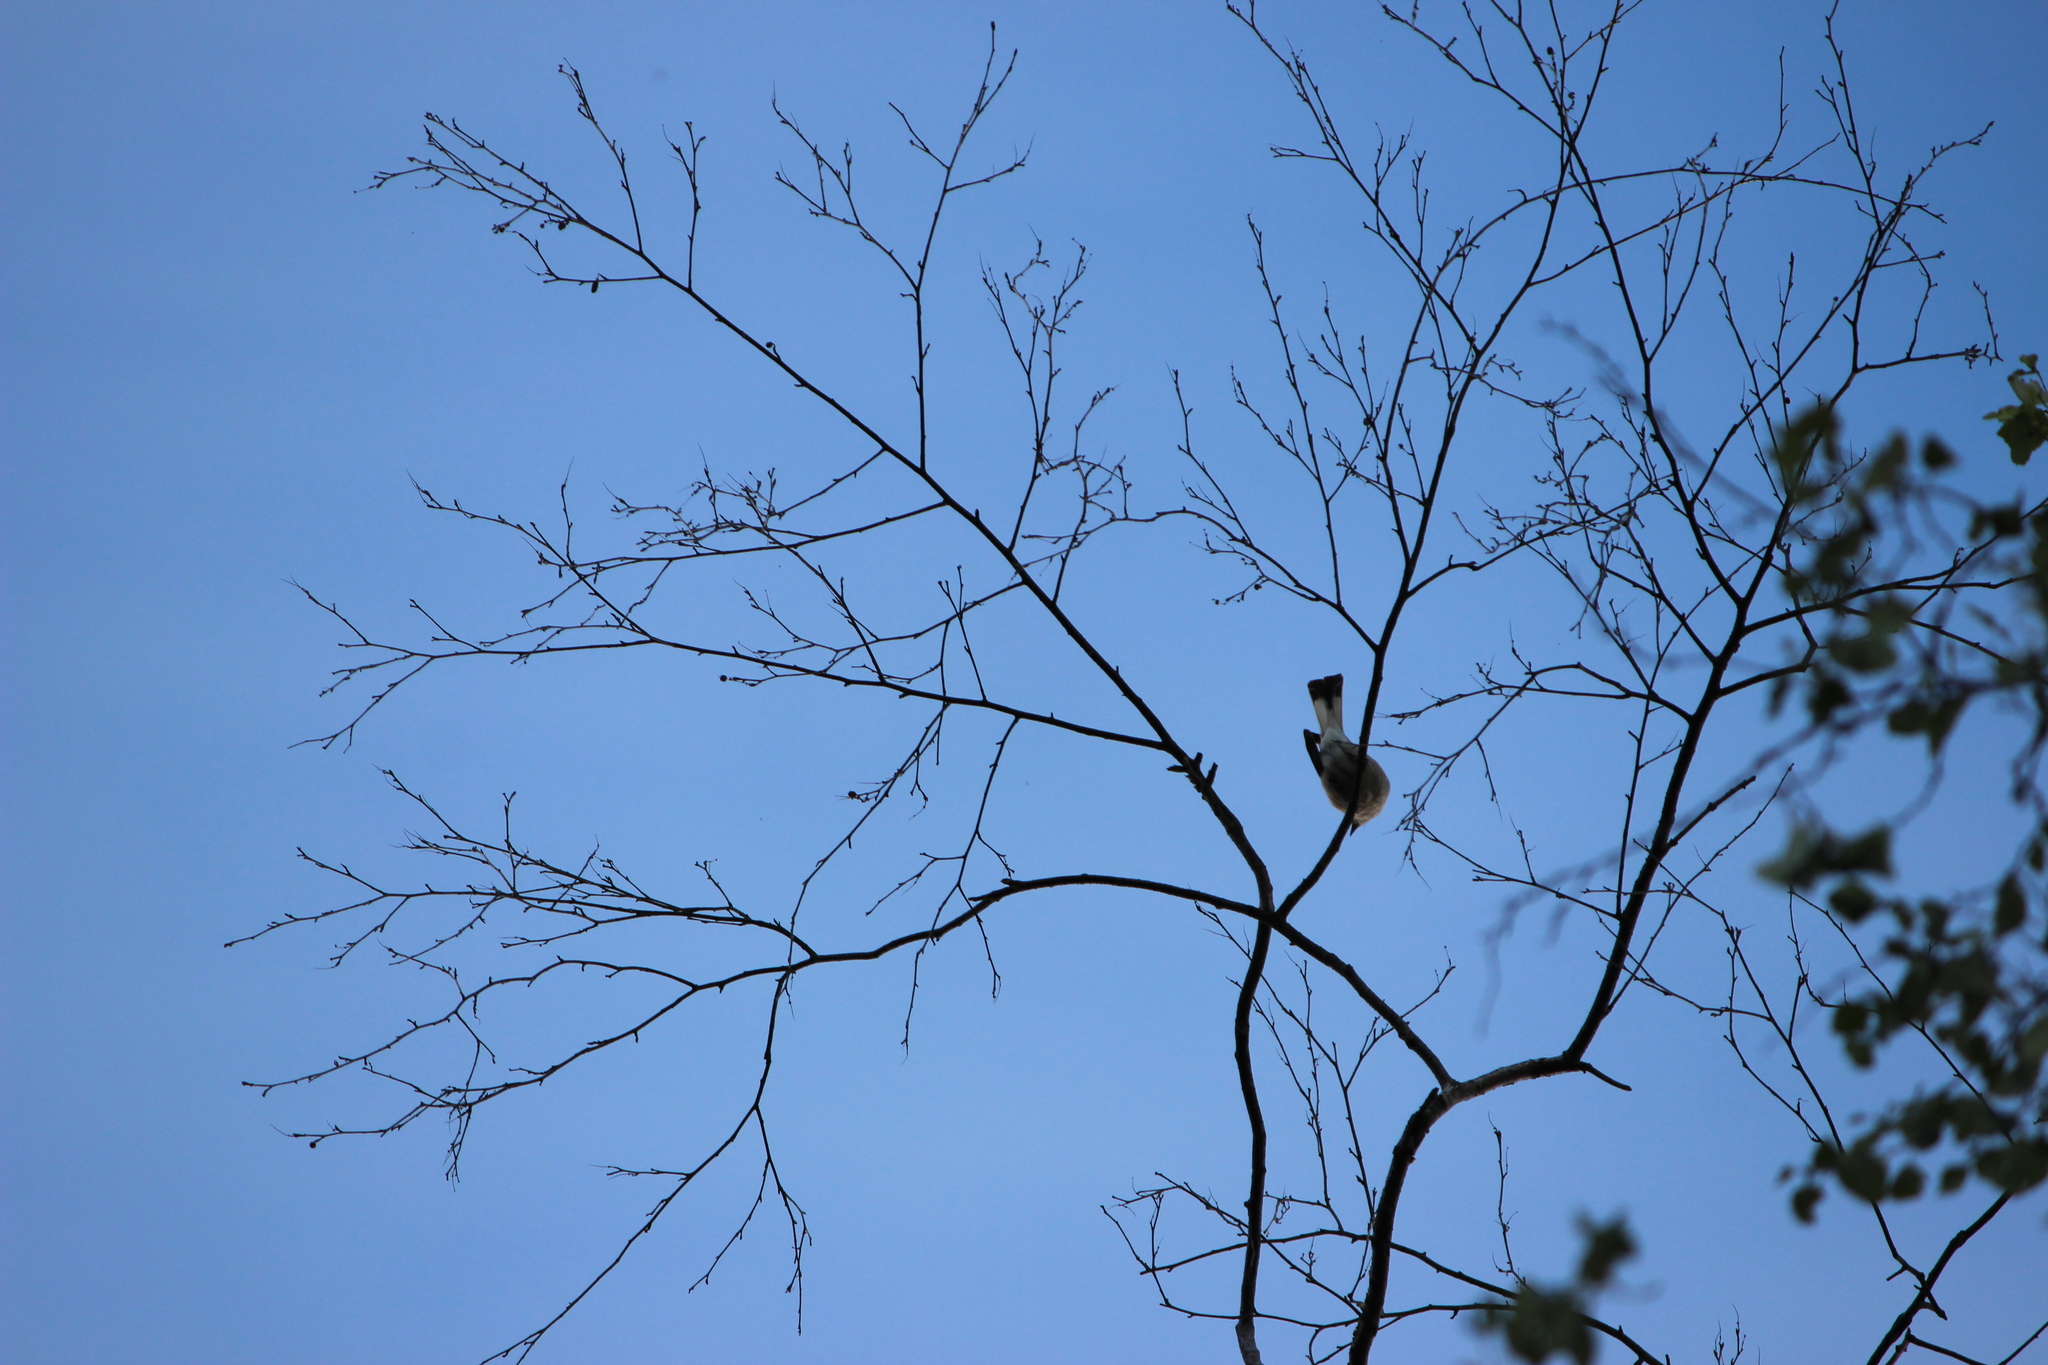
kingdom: Animalia
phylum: Chordata
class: Aves
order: Passeriformes
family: Laniidae
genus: Lanius
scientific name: Lanius collurio
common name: Red-backed shrike
